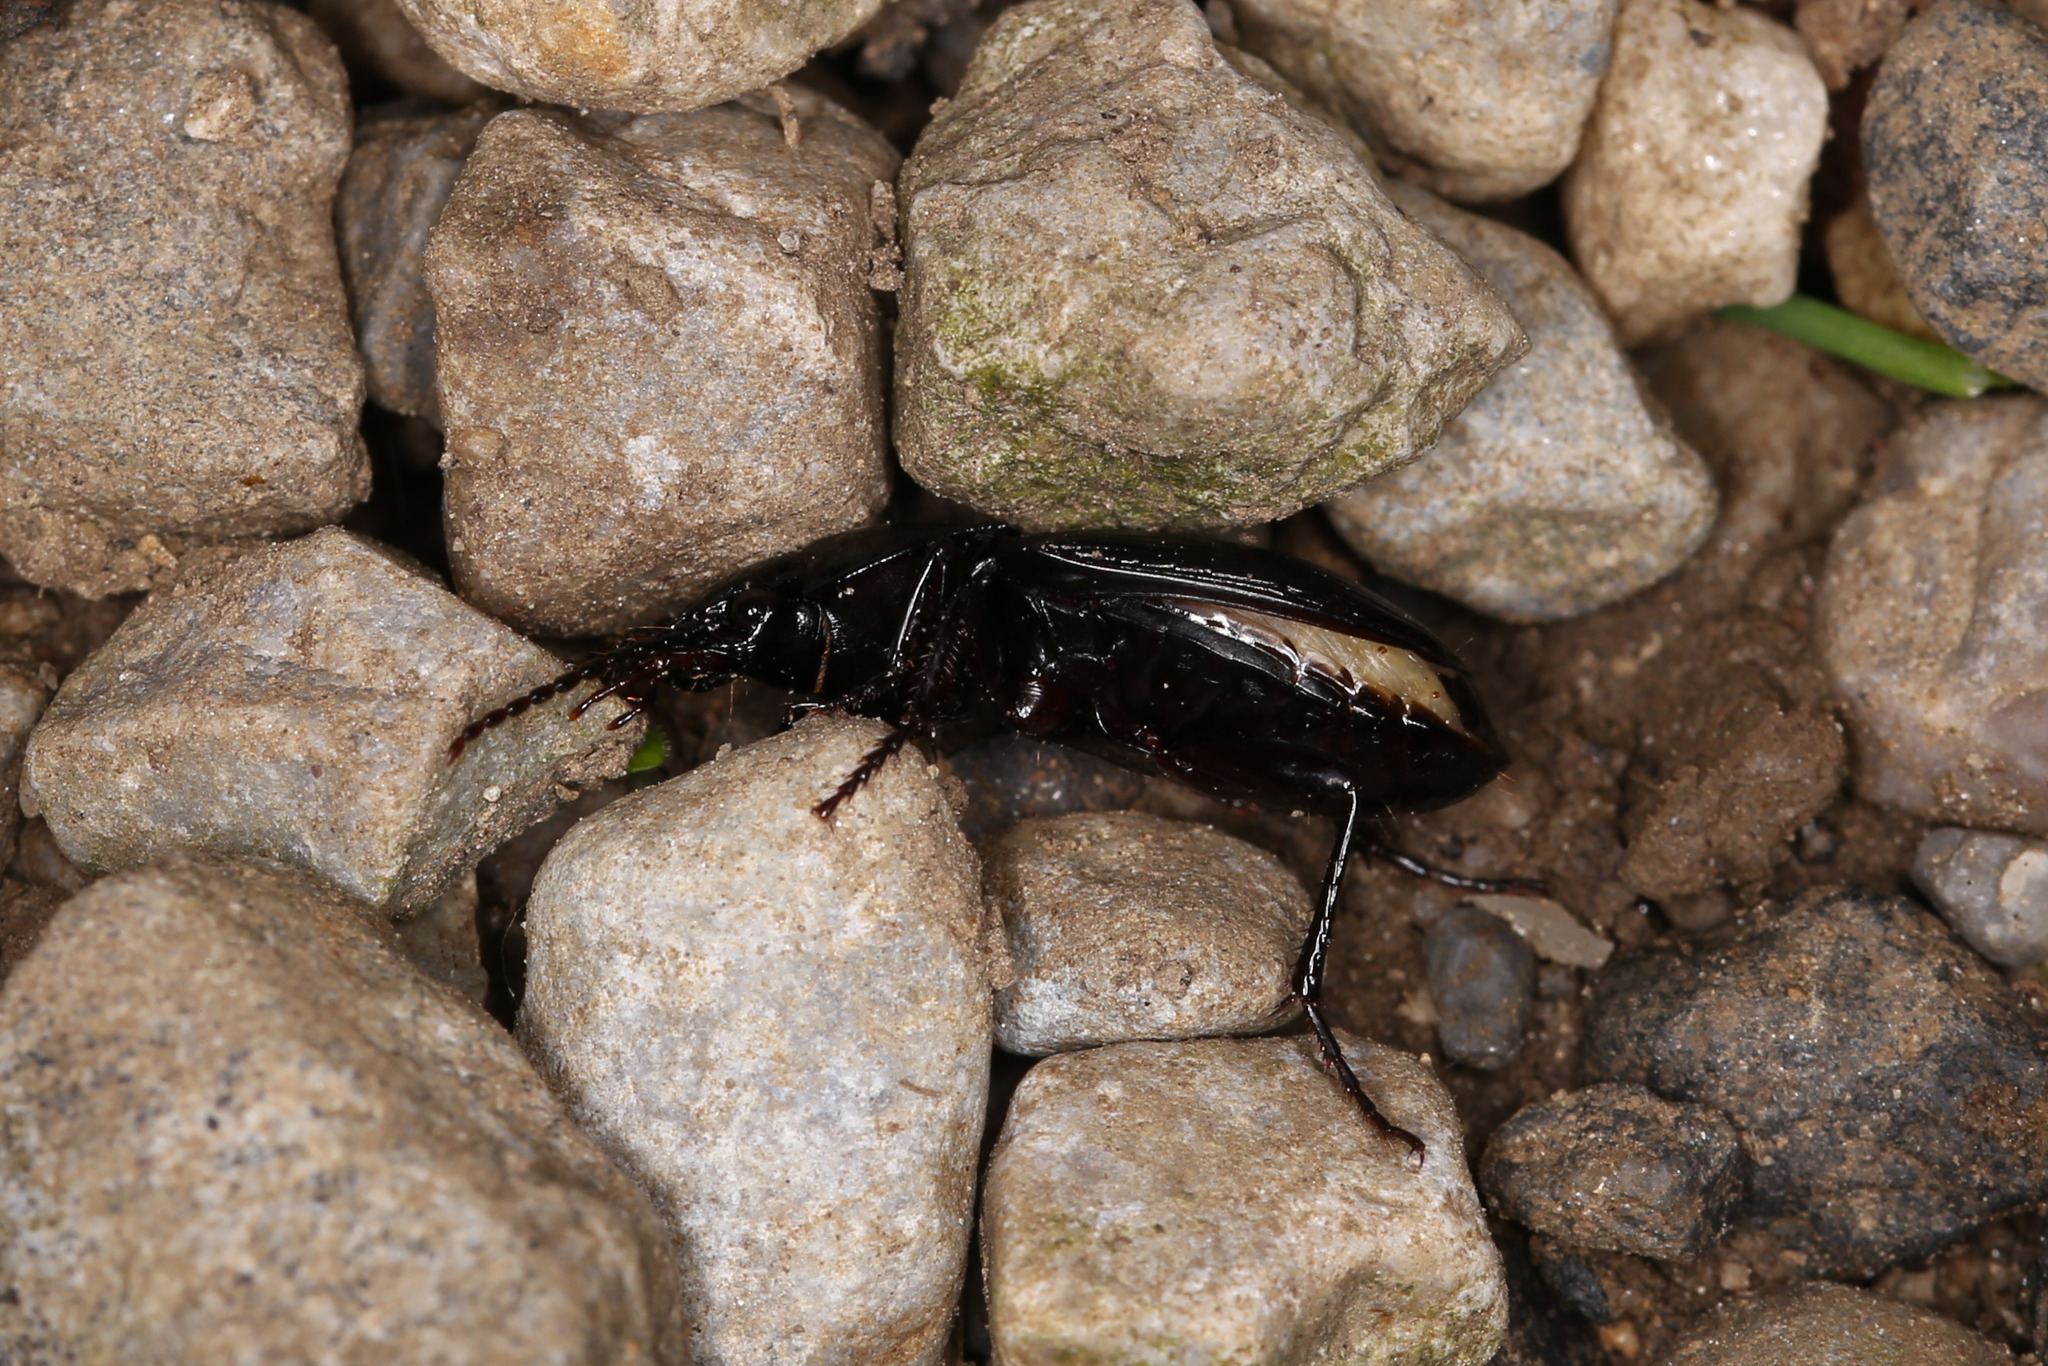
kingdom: Animalia
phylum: Arthropoda
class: Insecta
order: Coleoptera
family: Carabidae
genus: Abax
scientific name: Abax parallelus
